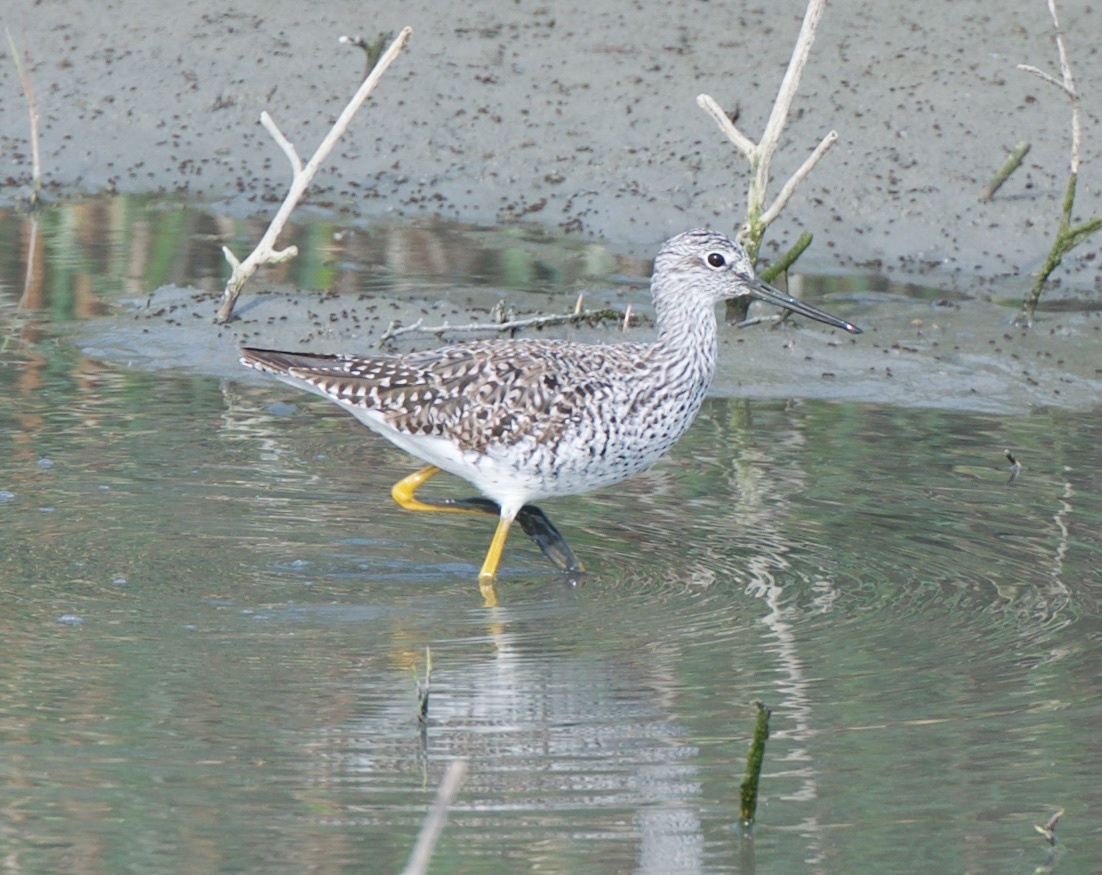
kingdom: Animalia
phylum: Chordata
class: Aves
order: Charadriiformes
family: Scolopacidae
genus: Tringa
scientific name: Tringa melanoleuca
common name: Greater yellowlegs
